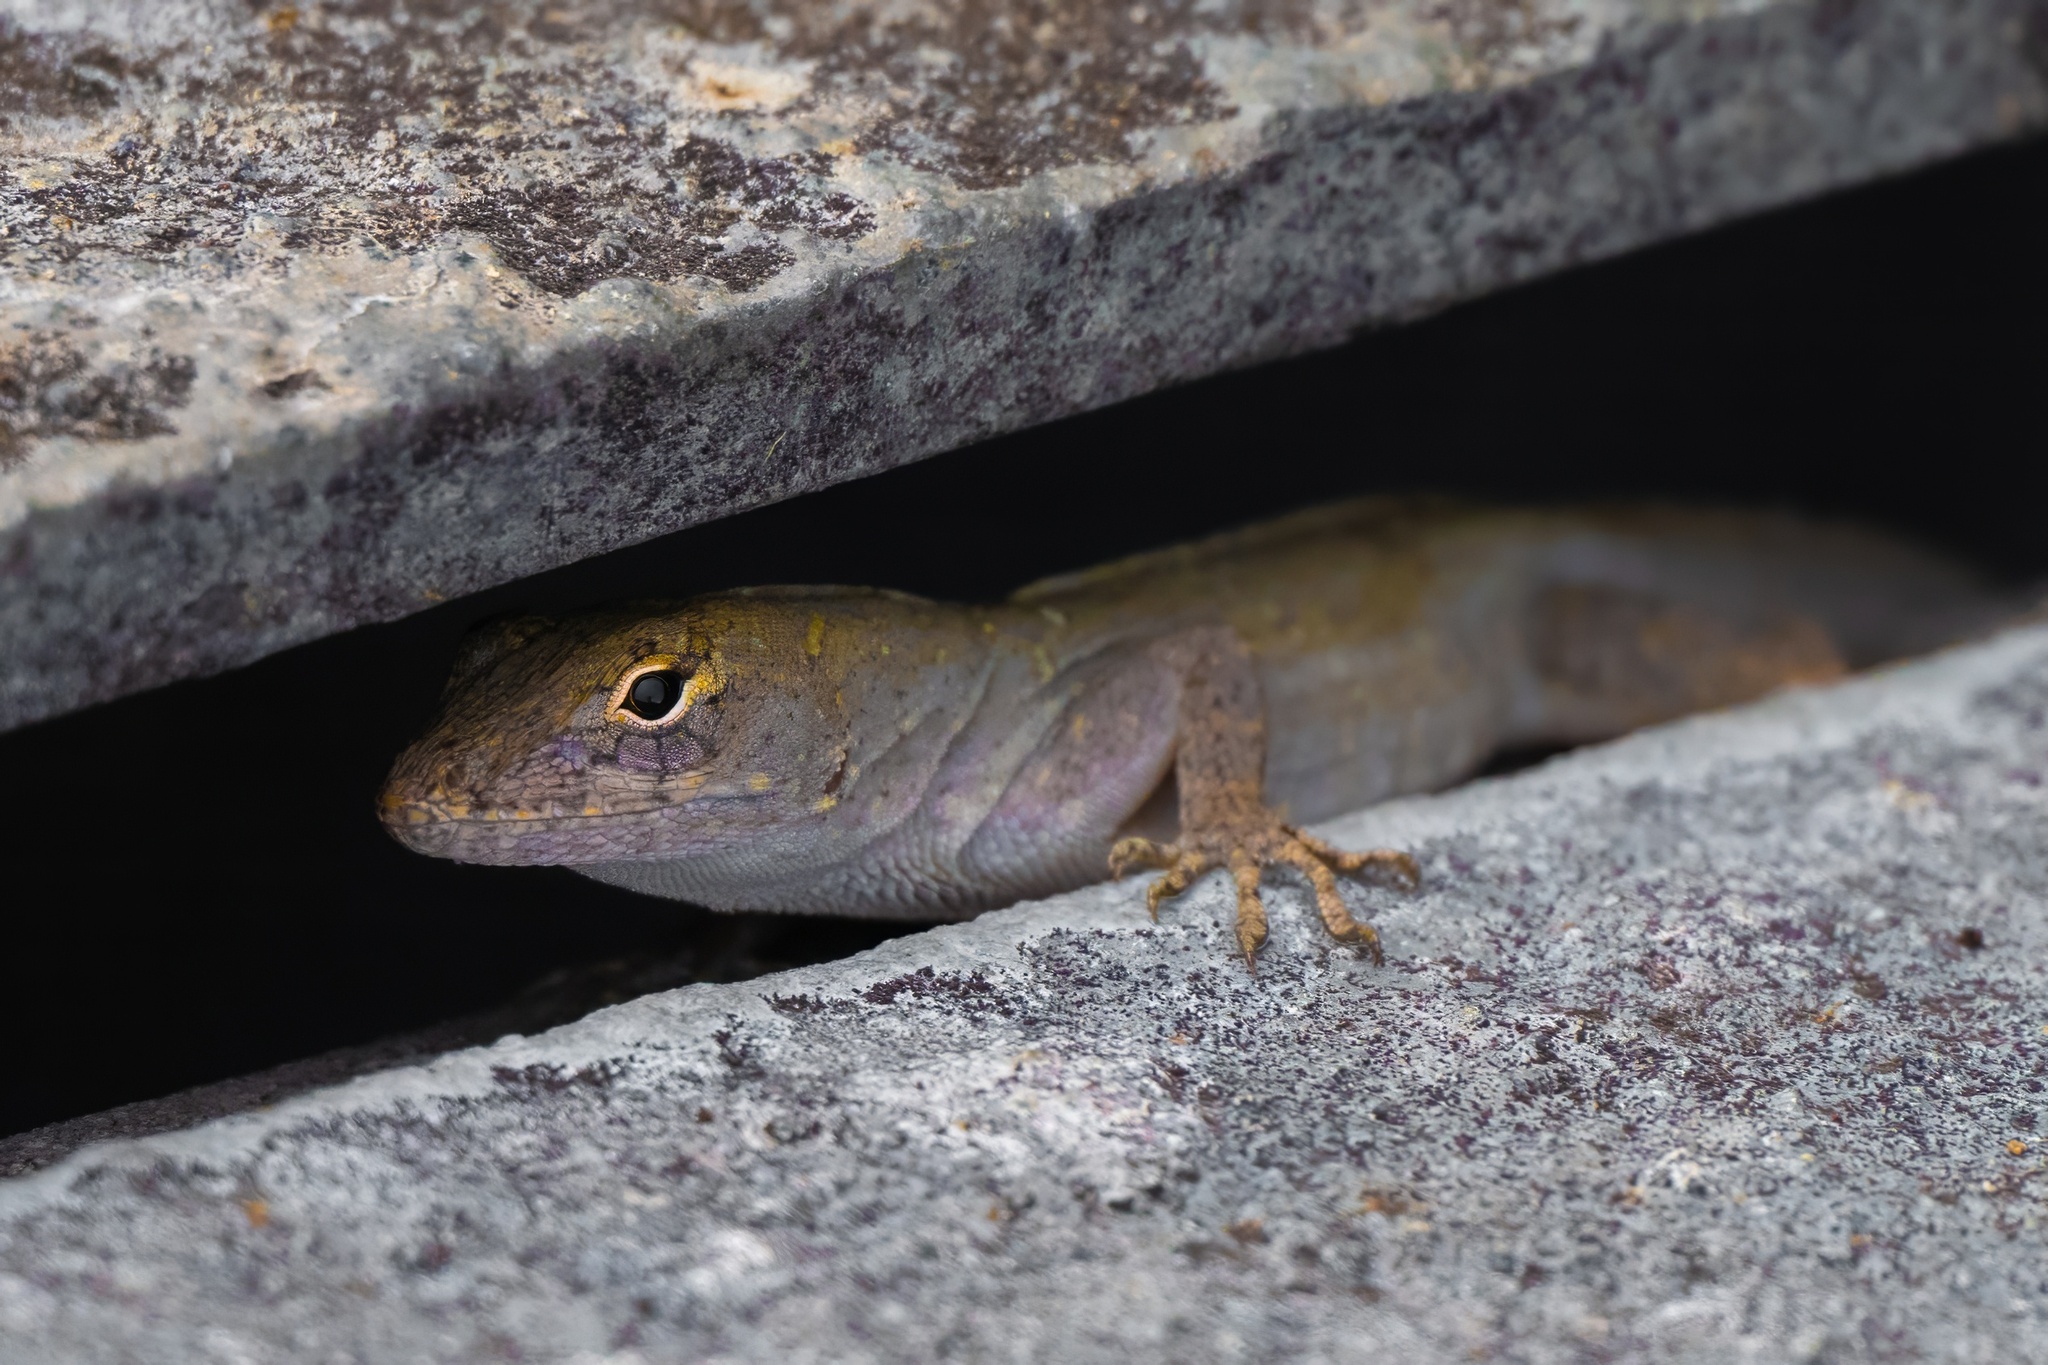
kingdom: Animalia
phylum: Chordata
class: Squamata
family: Dactyloidae
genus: Anolis
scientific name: Anolis sagrei
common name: Brown anole
